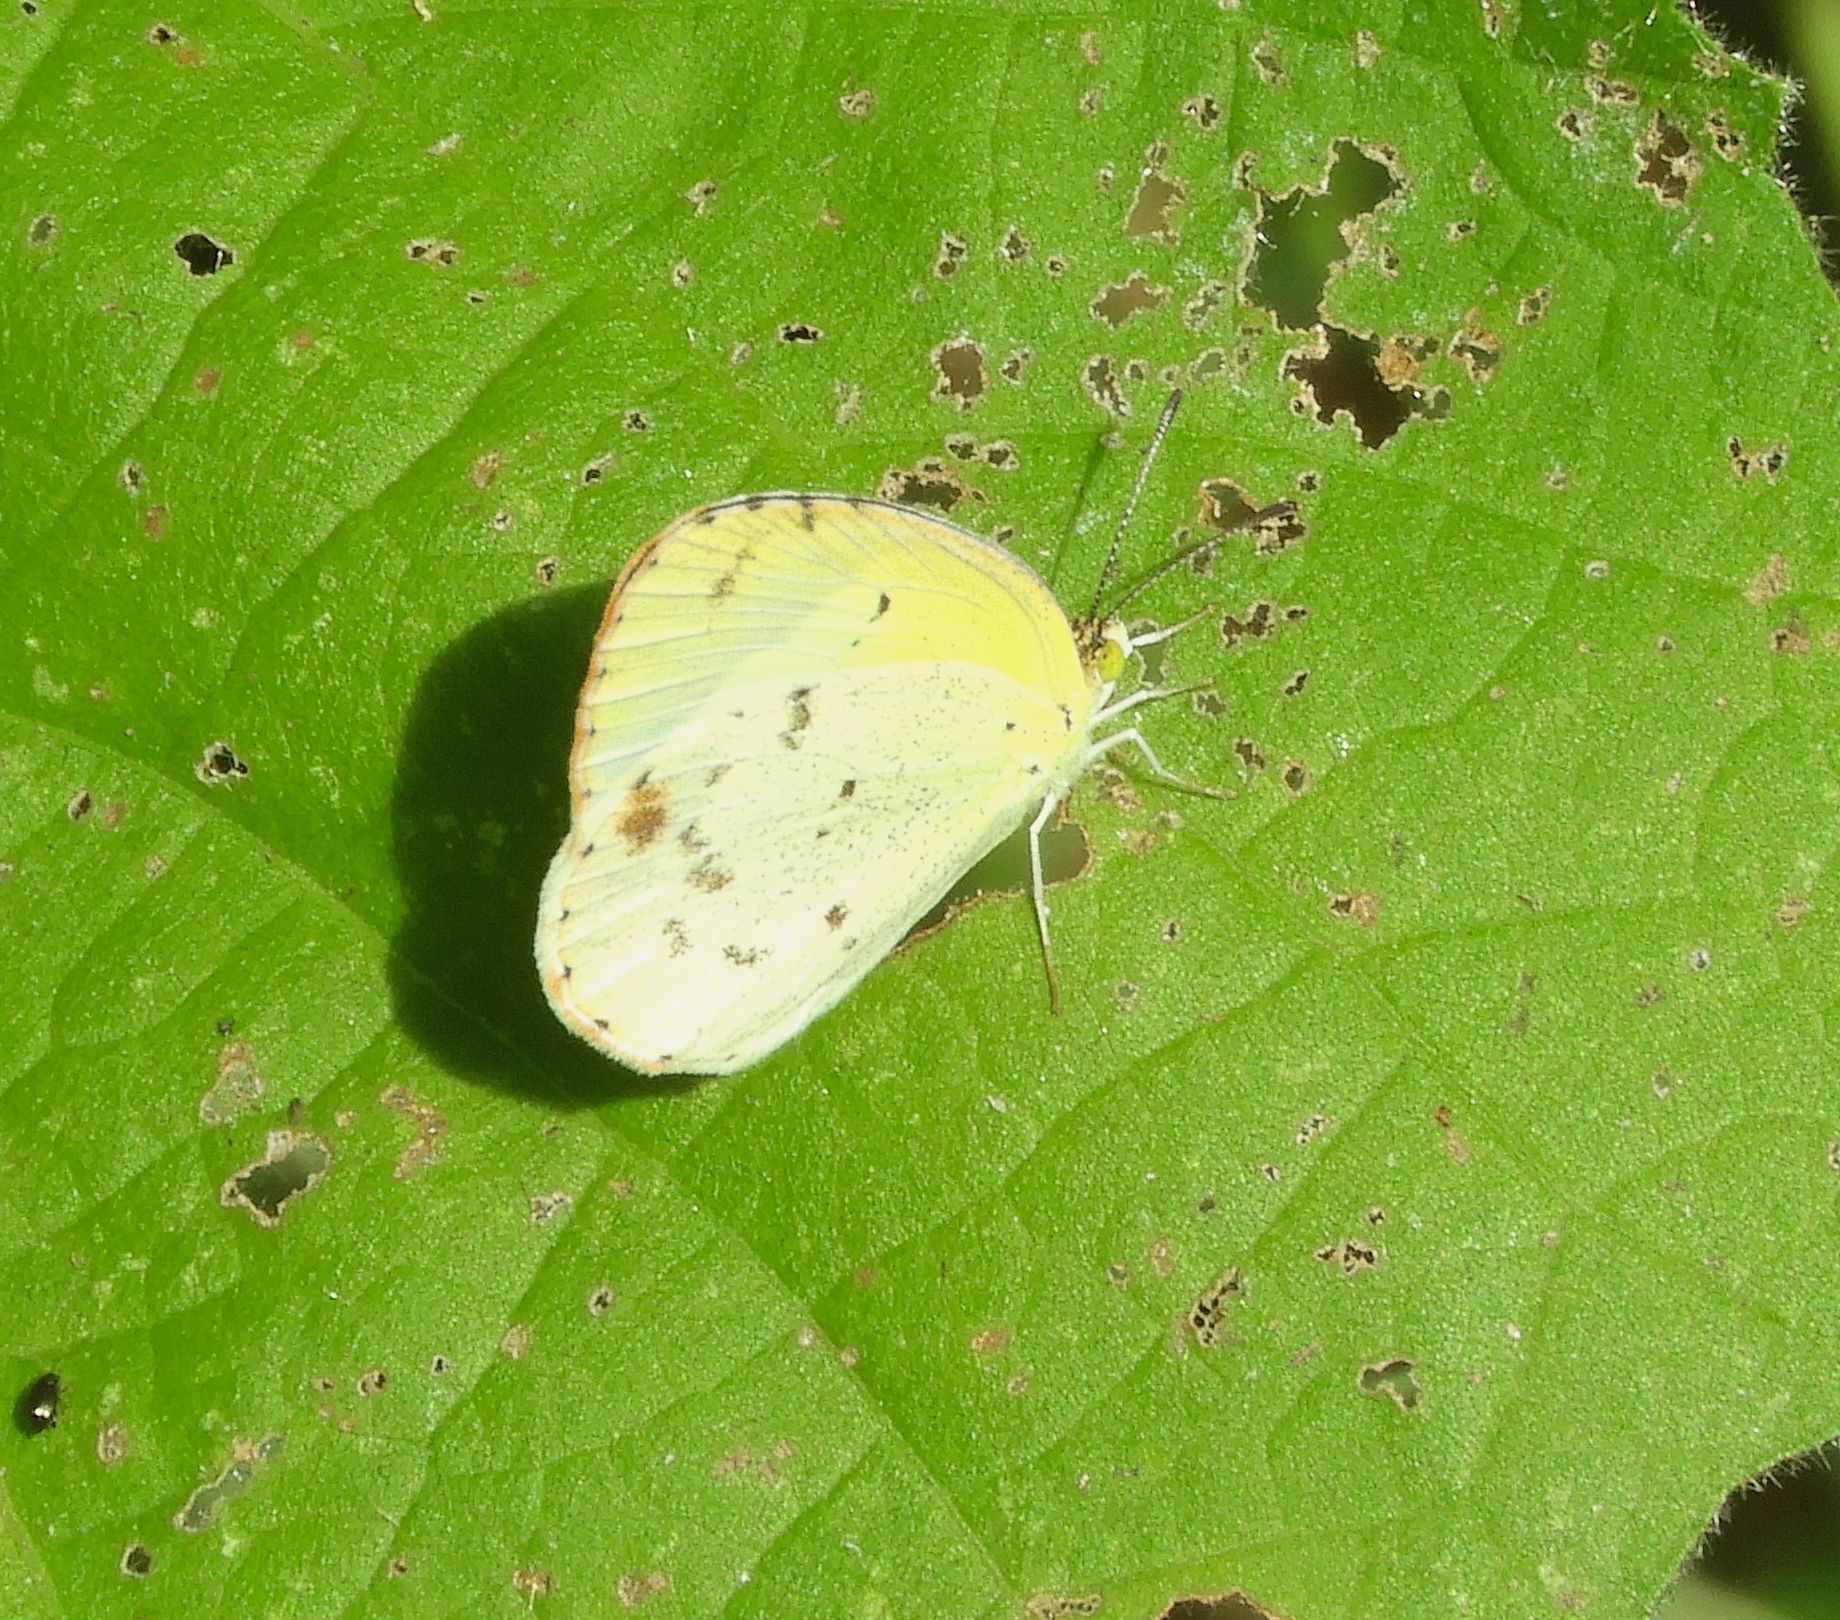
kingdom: Animalia
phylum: Arthropoda
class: Insecta
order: Lepidoptera
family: Pieridae
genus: Pyrisitia
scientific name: Pyrisitia lisa
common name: Little yellow
